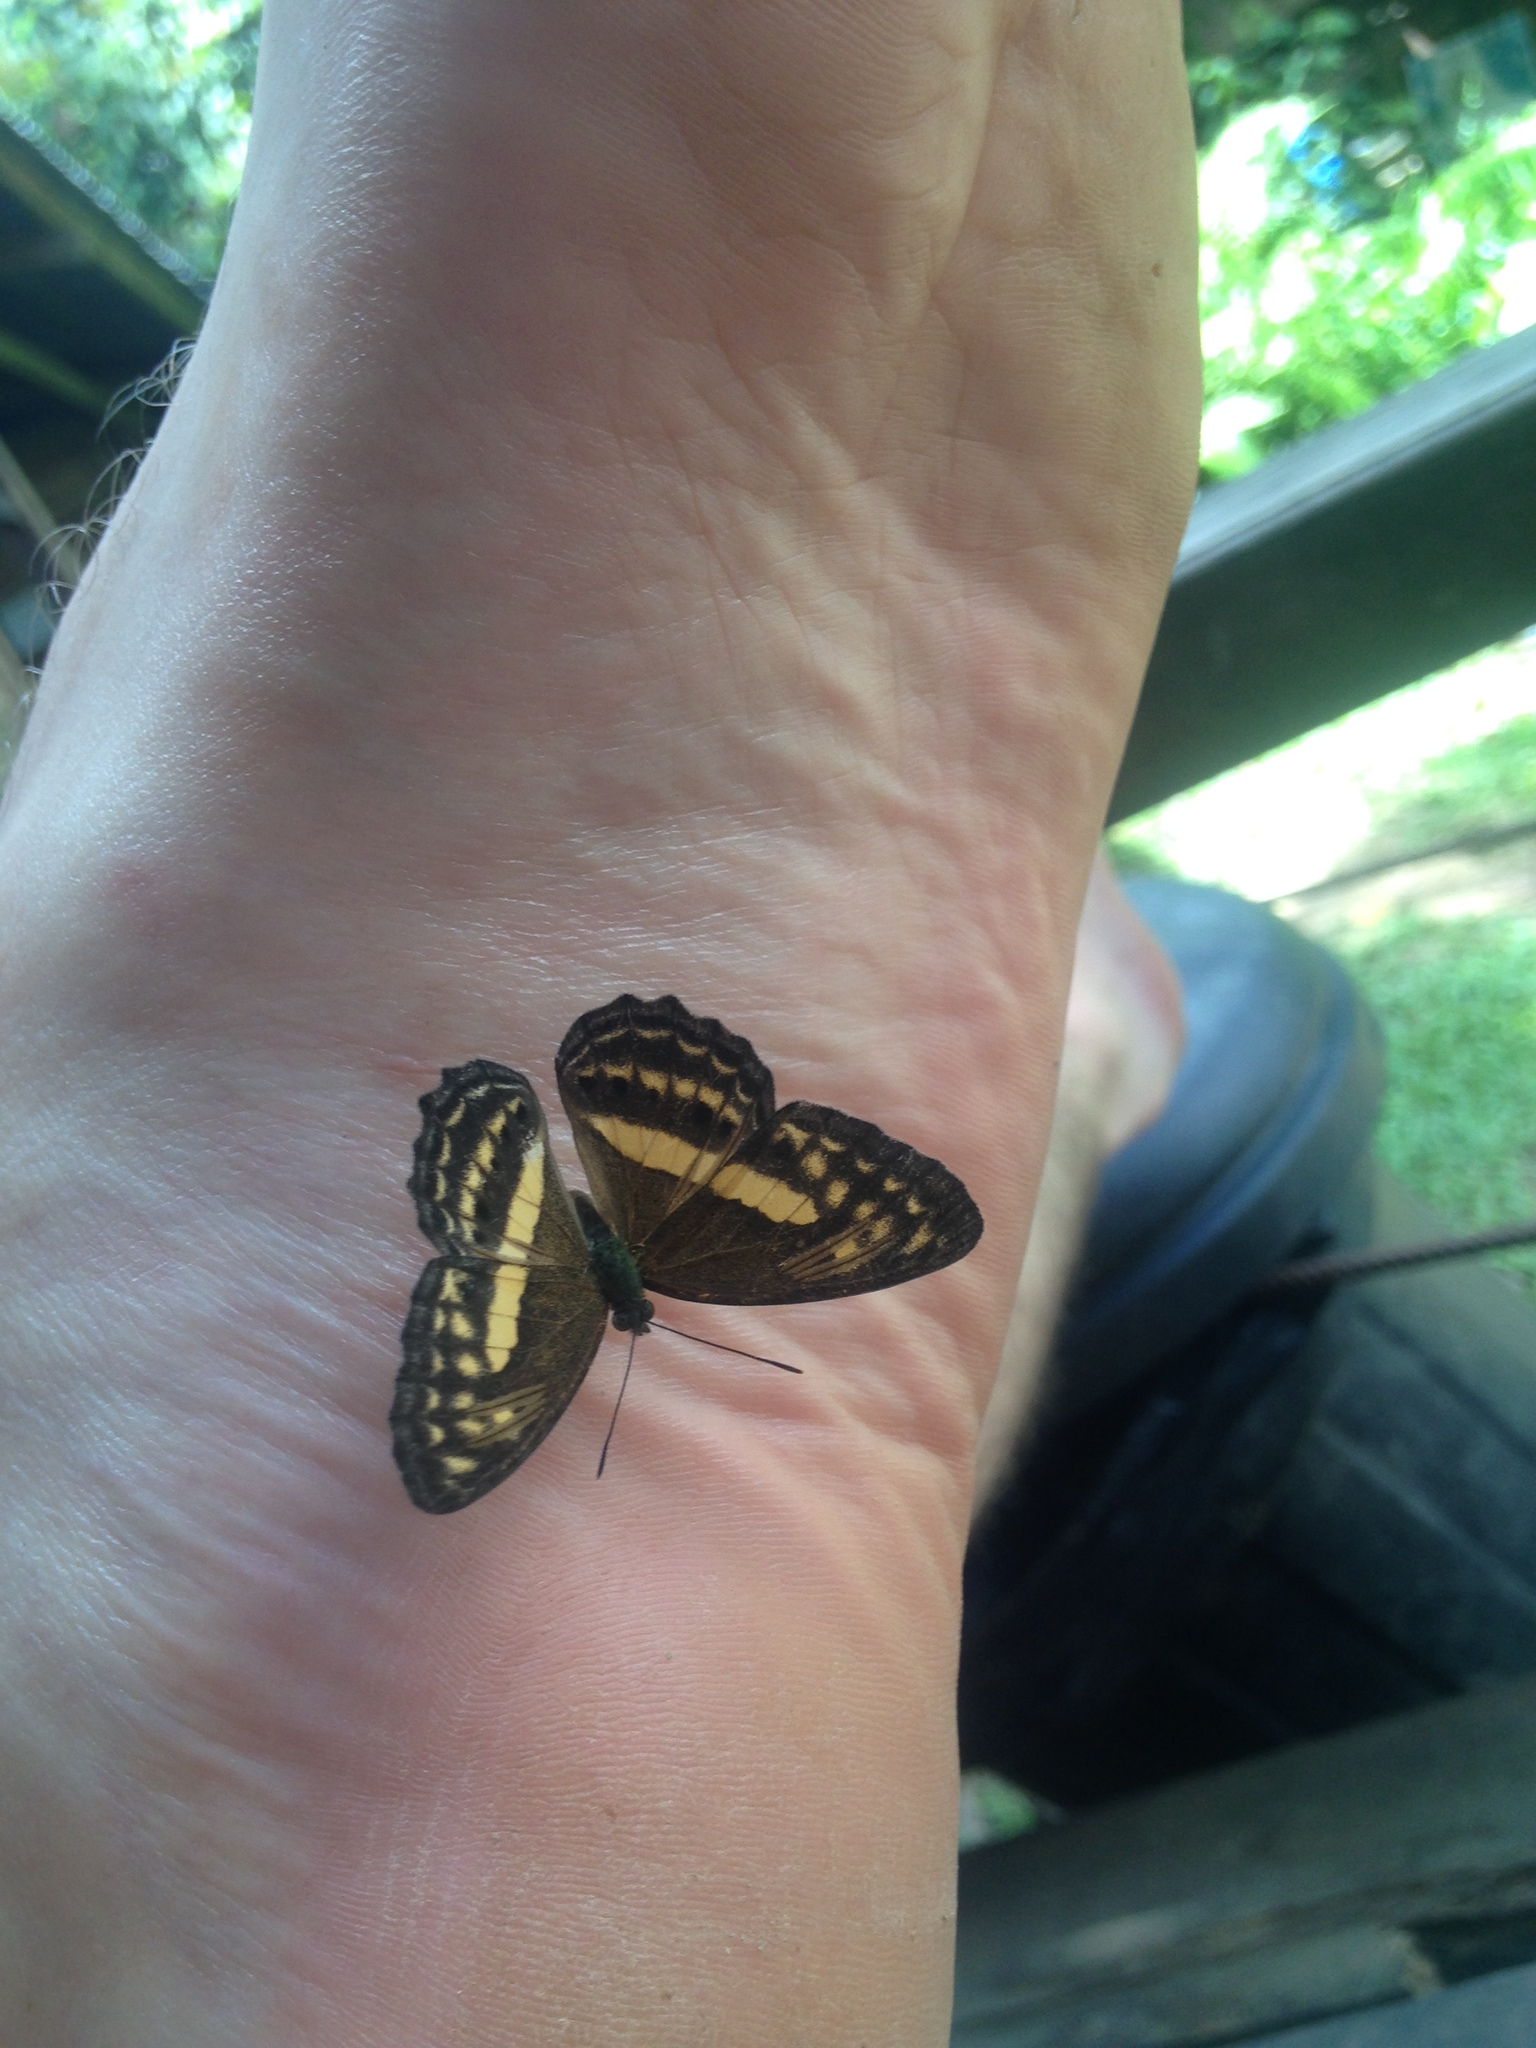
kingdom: Animalia
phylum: Arthropoda
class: Insecta
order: Lepidoptera
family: Nymphalidae
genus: Algia
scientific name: Algia fasciata
